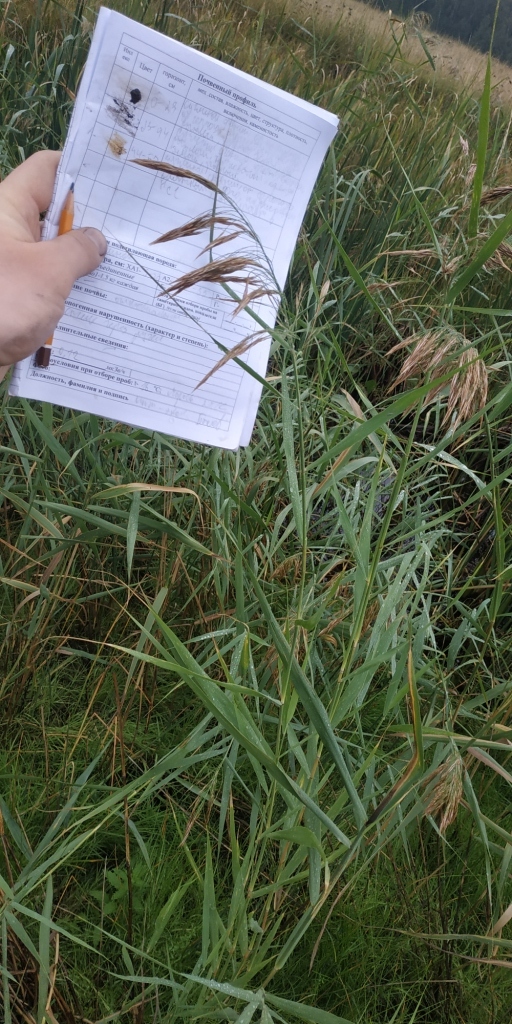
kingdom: Plantae
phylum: Tracheophyta
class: Liliopsida
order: Poales
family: Poaceae
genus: Phragmites
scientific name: Phragmites australis
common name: Common reed
